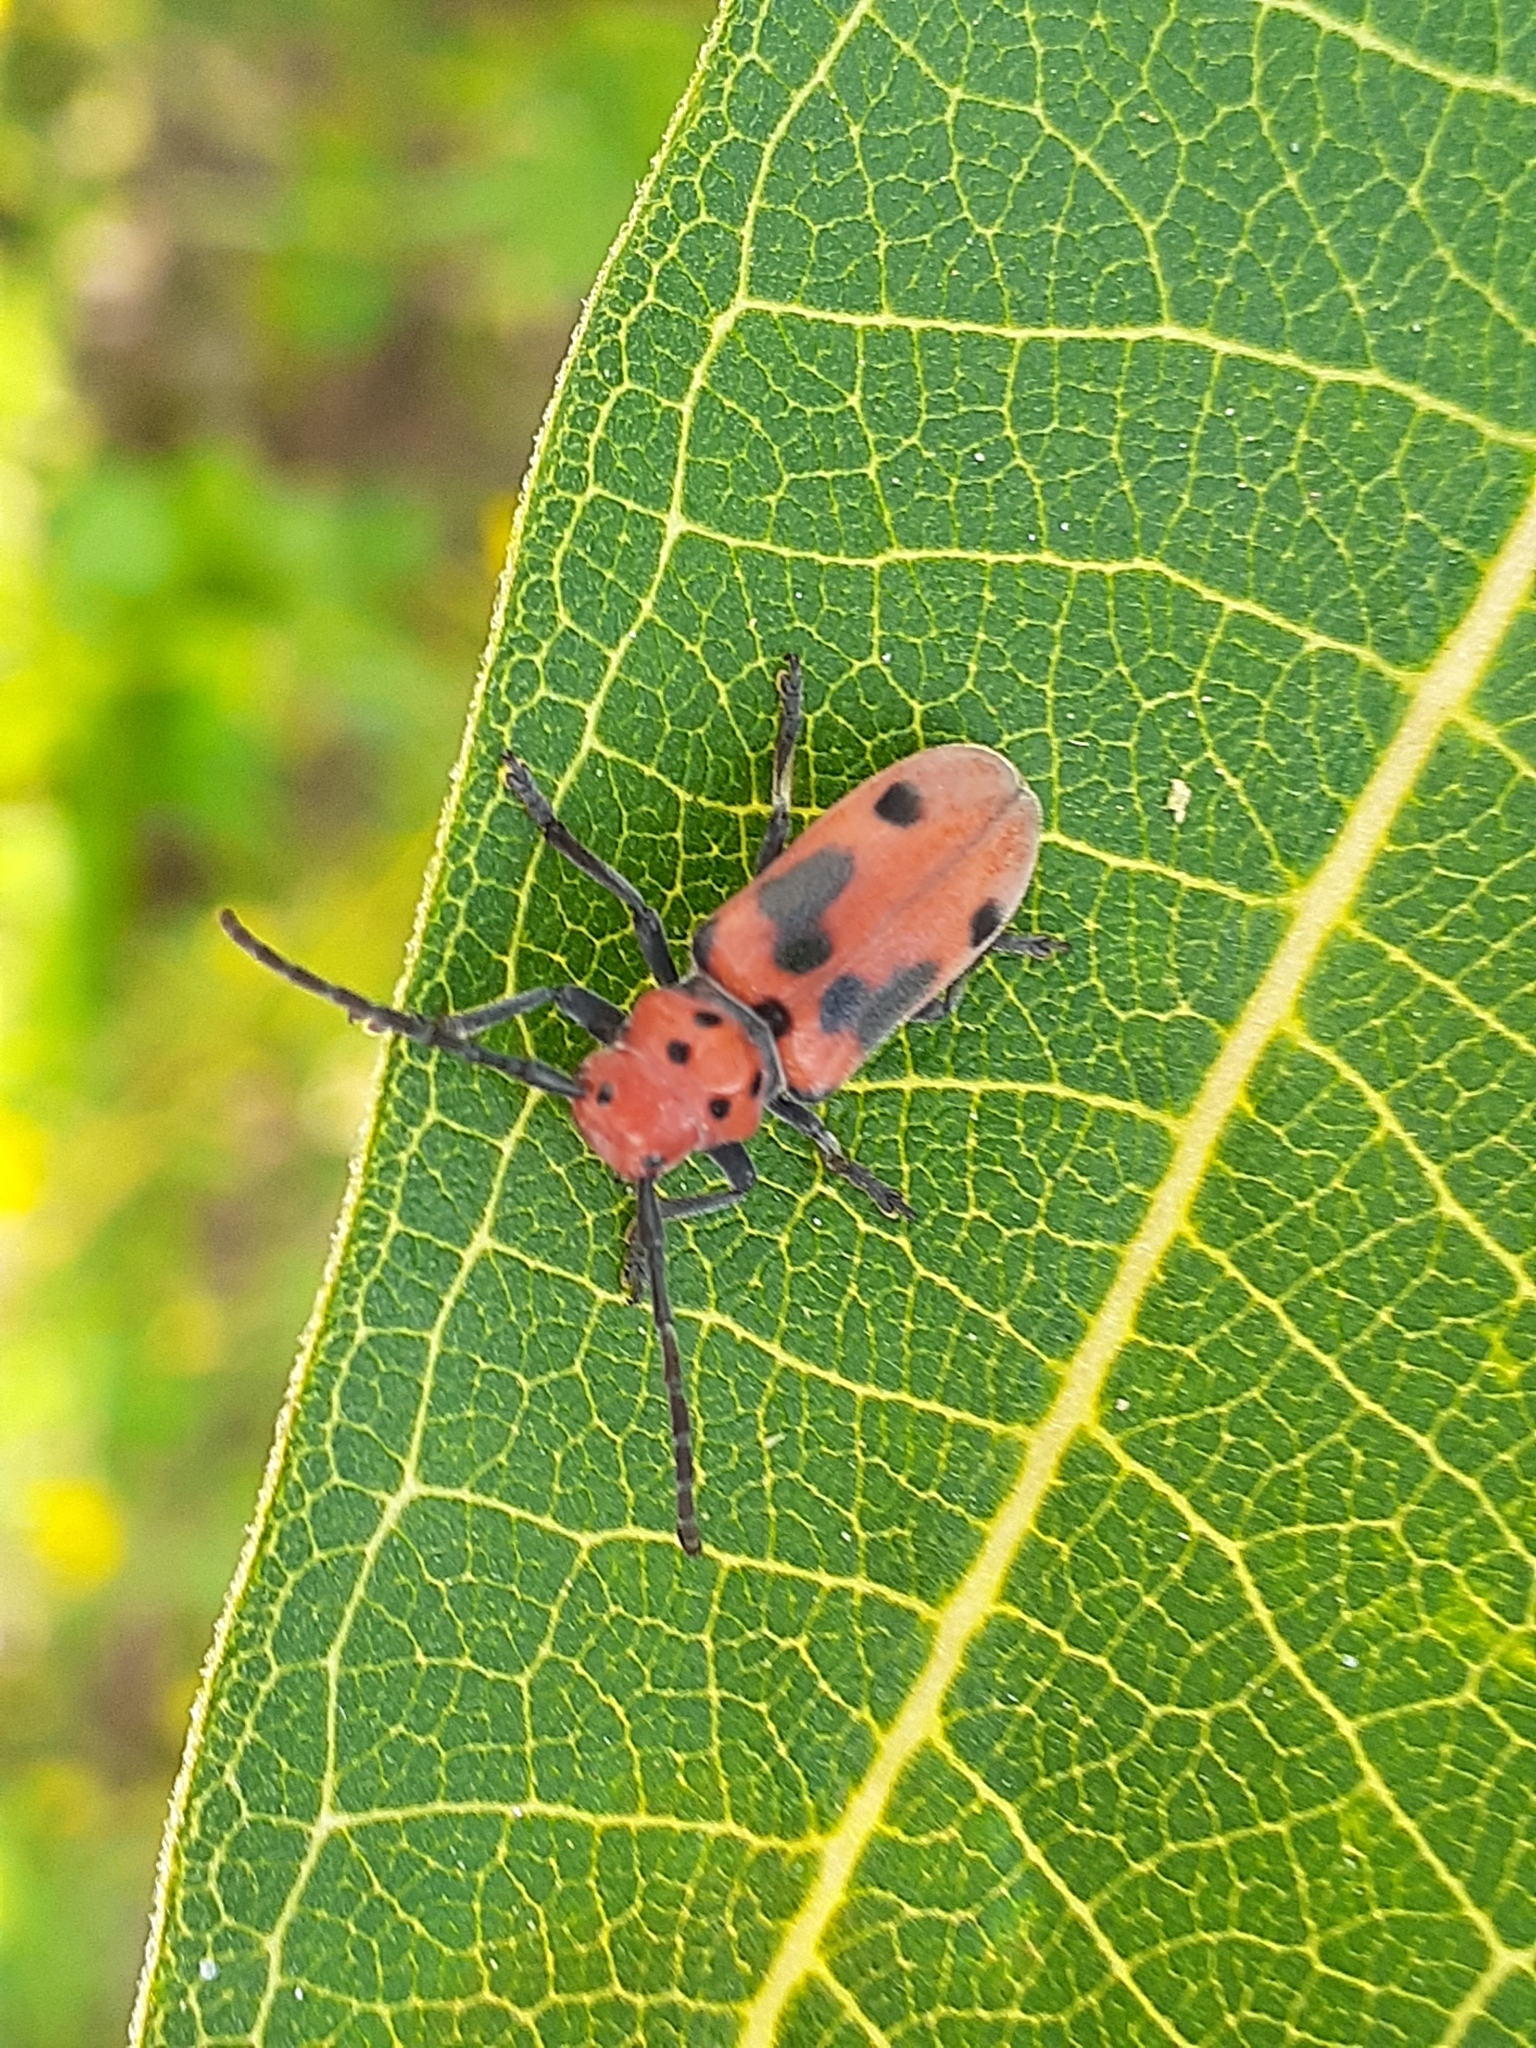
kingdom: Animalia
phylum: Arthropoda
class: Insecta
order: Coleoptera
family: Cerambycidae
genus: Tetraopes
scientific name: Tetraopes tetrophthalmus
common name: Red milkweed beetle
